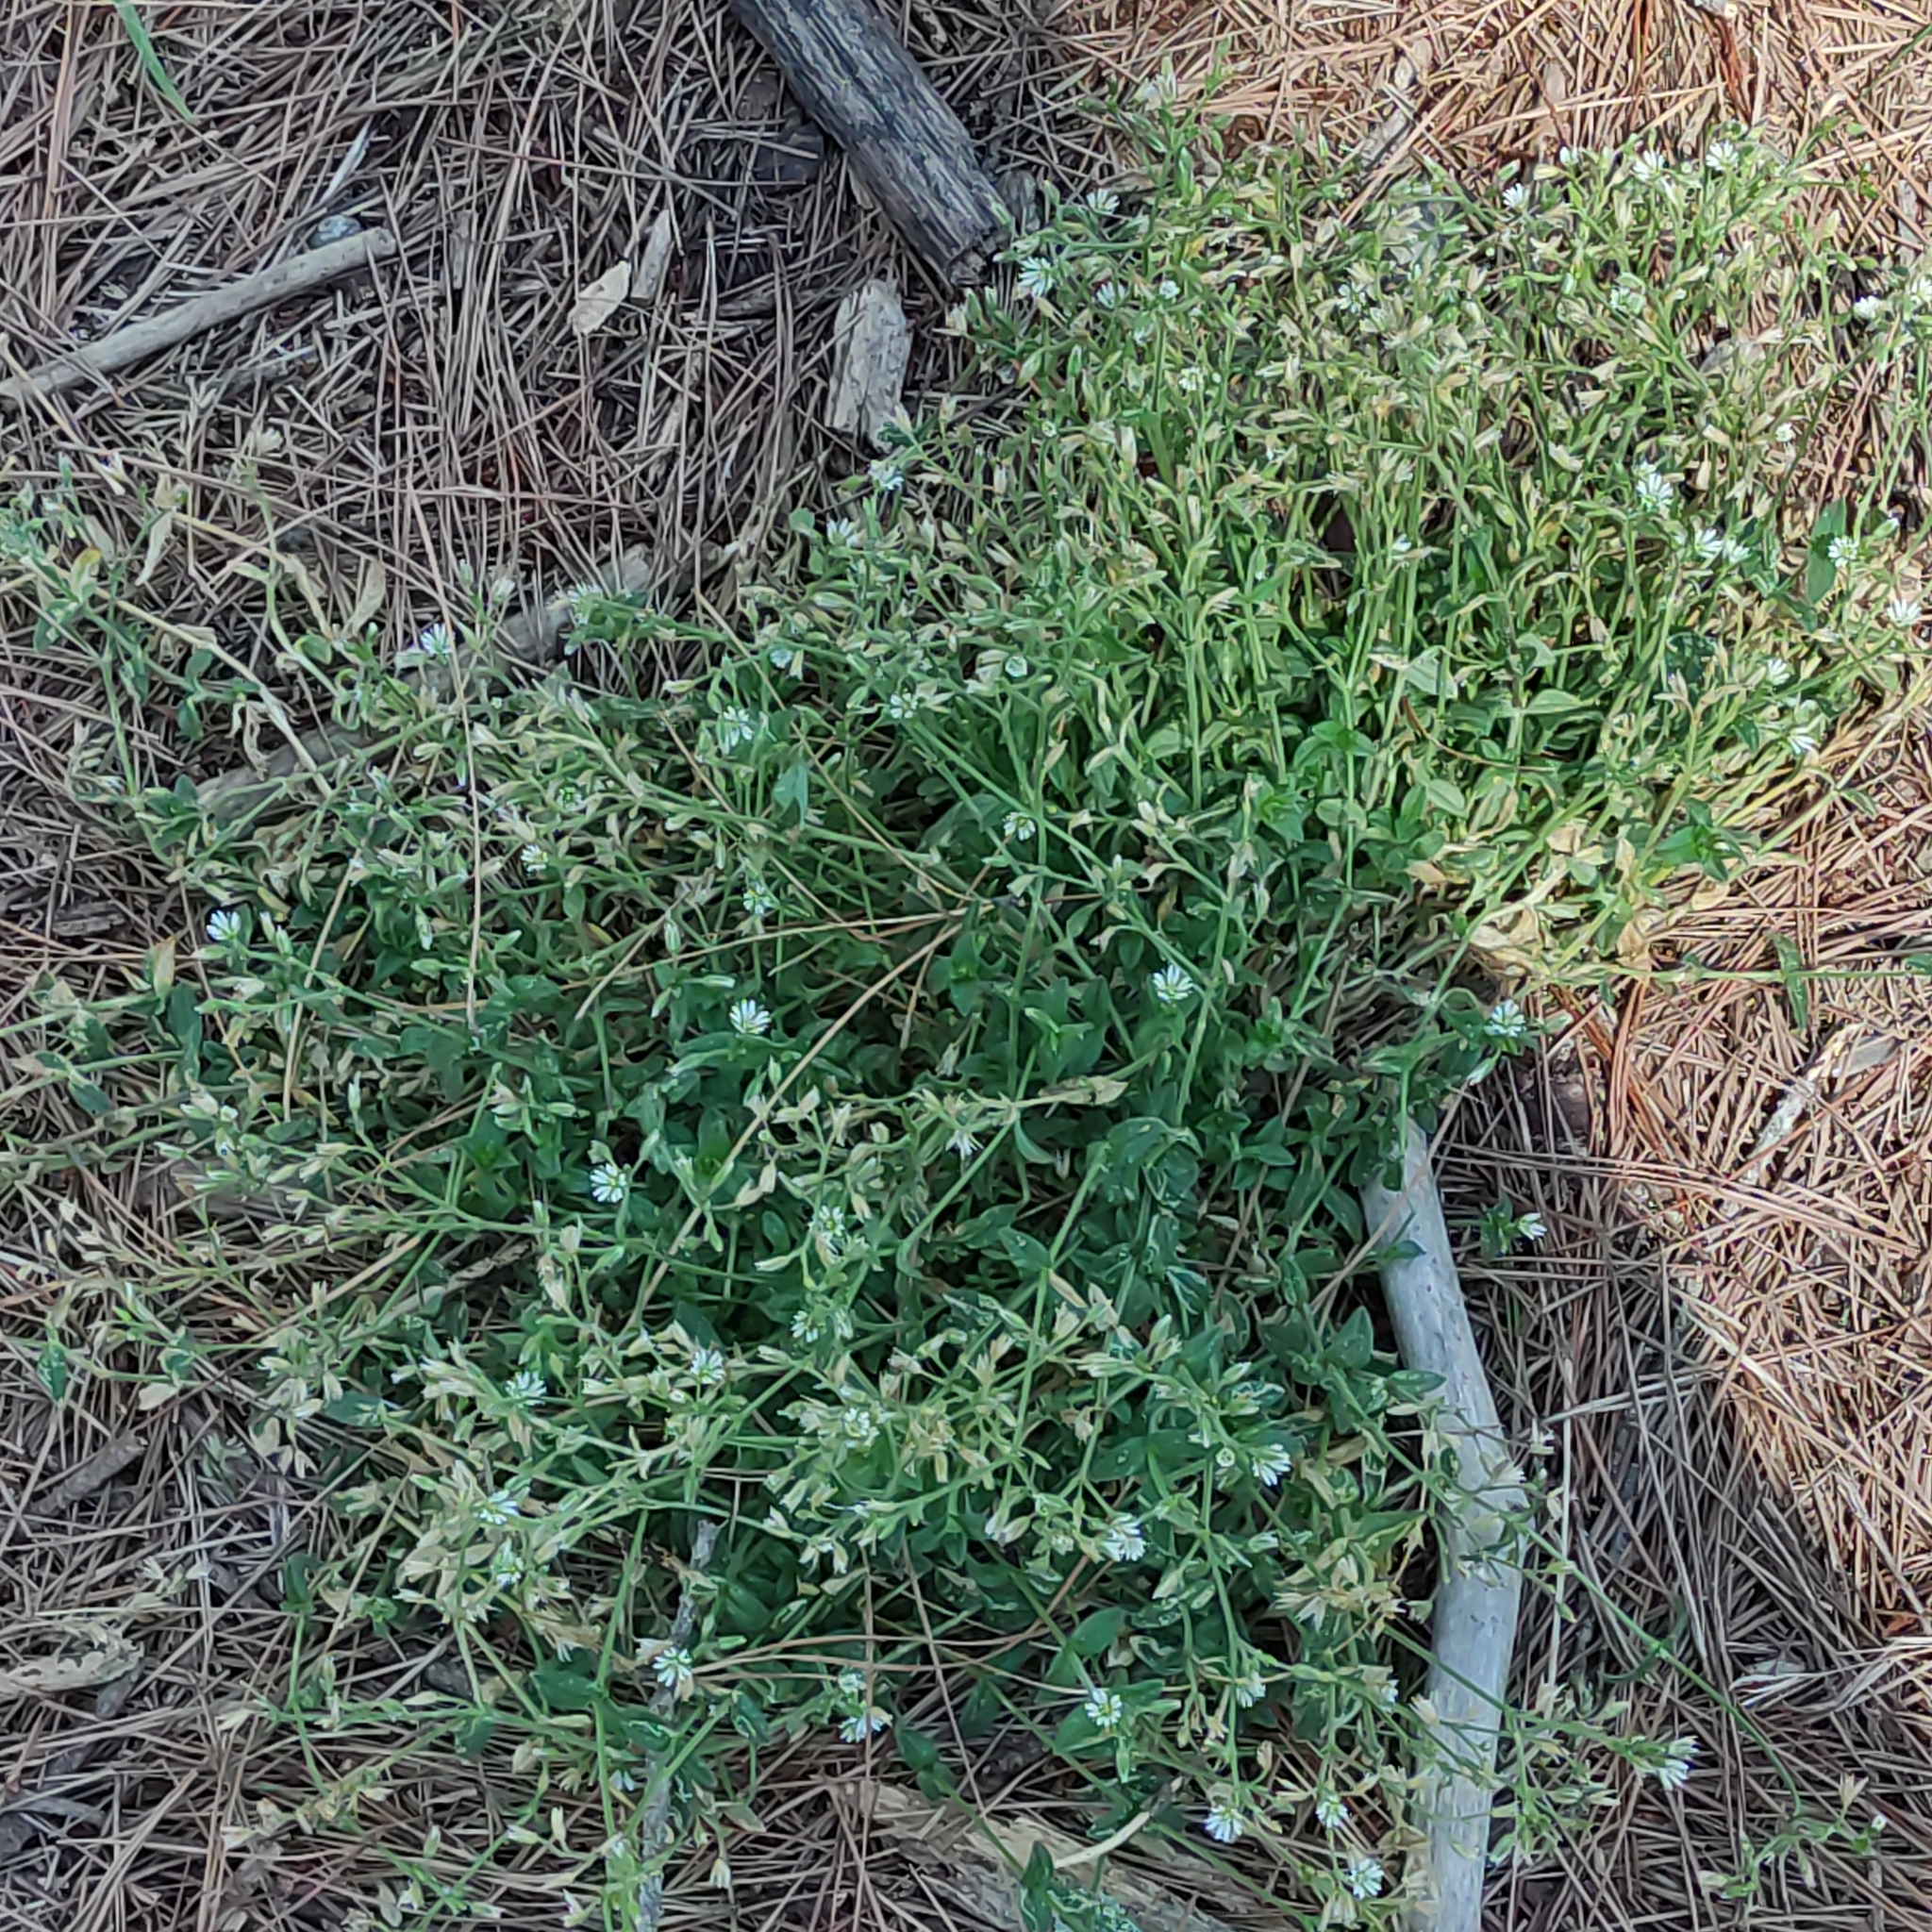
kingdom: Plantae
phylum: Tracheophyta
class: Magnoliopsida
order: Caryophyllales
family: Caryophyllaceae
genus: Stellaria
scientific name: Stellaria media
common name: Common chickweed
